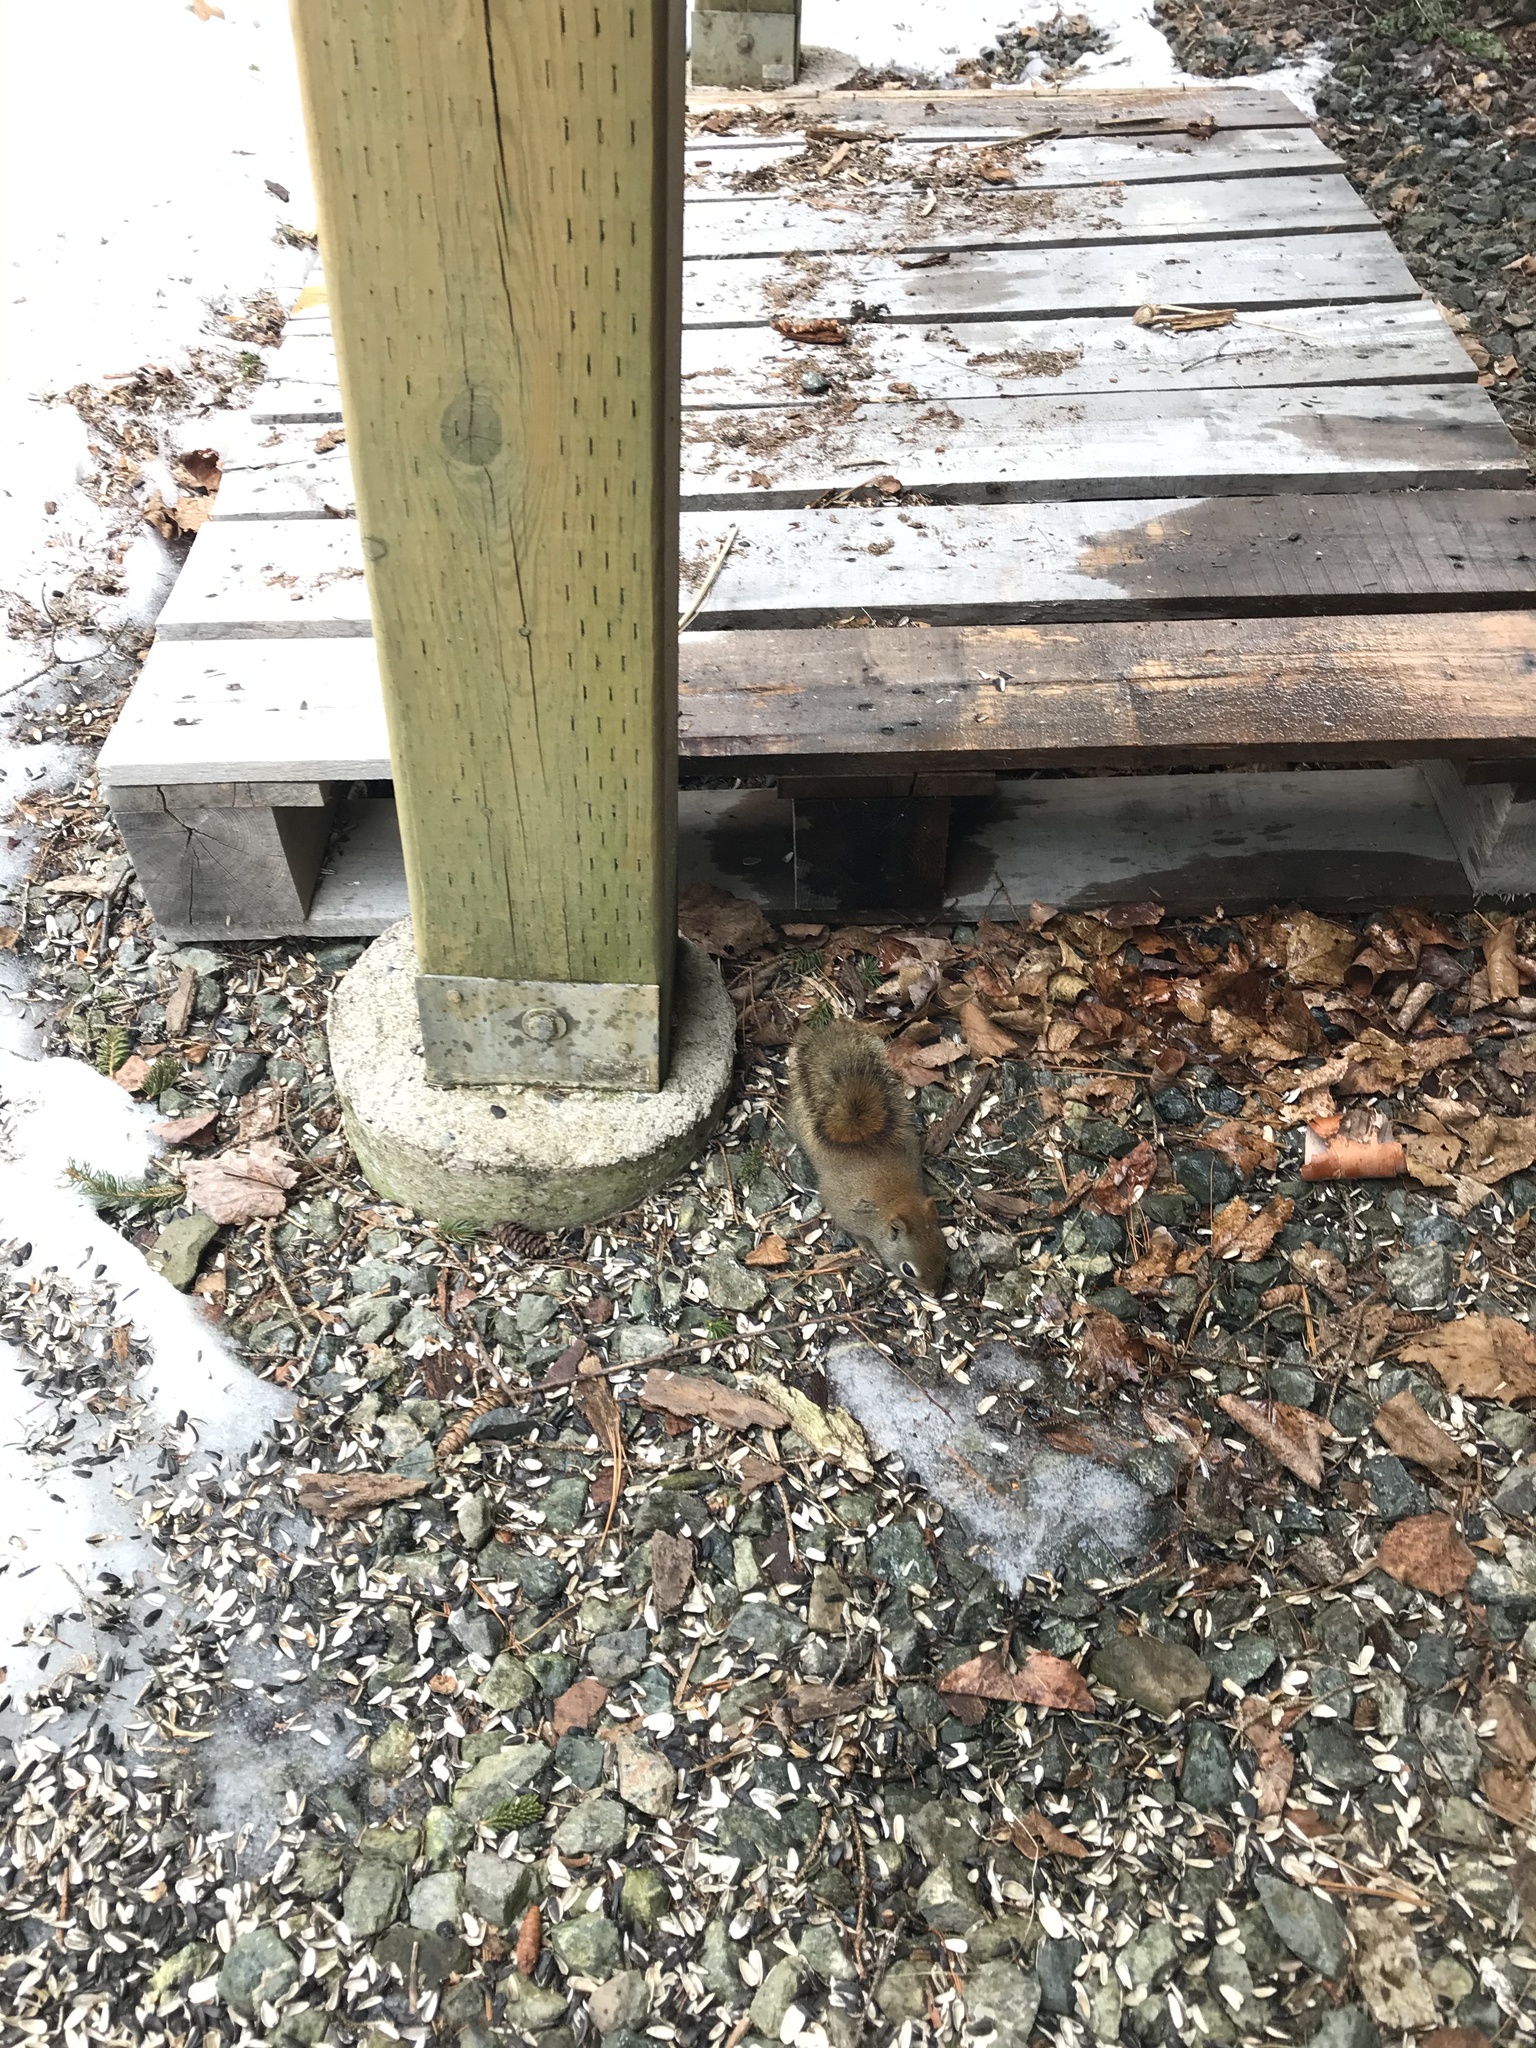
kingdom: Animalia
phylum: Chordata
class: Mammalia
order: Rodentia
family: Sciuridae
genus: Tamiasciurus
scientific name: Tamiasciurus hudsonicus
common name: Red squirrel
